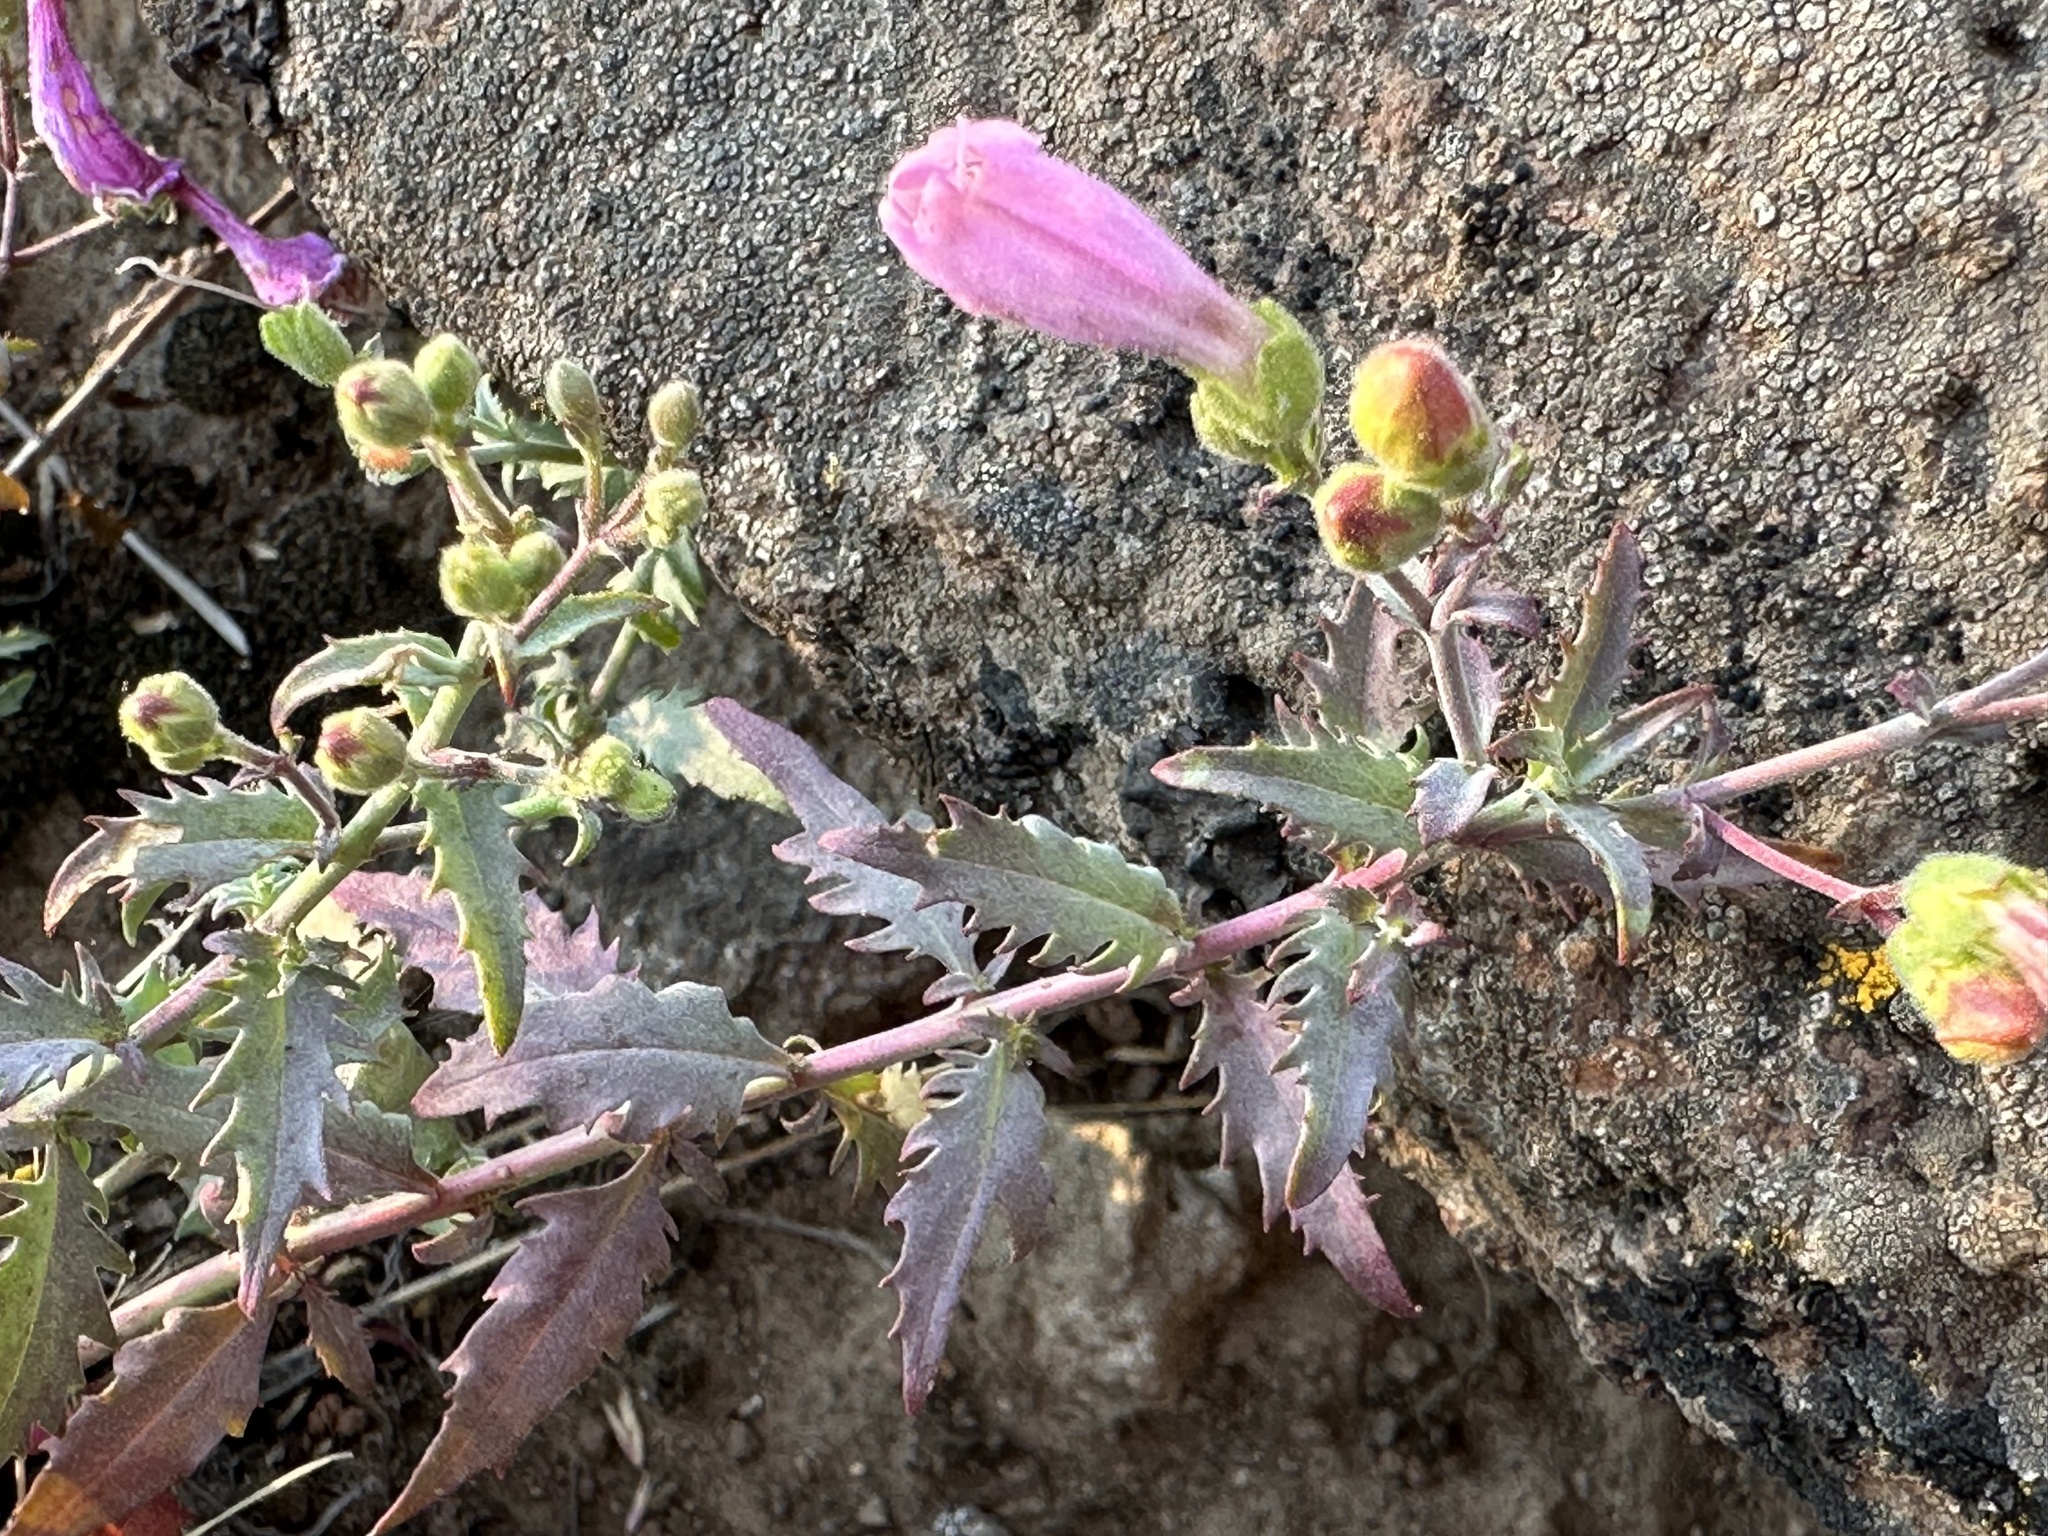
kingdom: Plantae
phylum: Tracheophyta
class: Magnoliopsida
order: Lamiales
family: Plantaginaceae
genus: Penstemon
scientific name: Penstemon richardsonii
